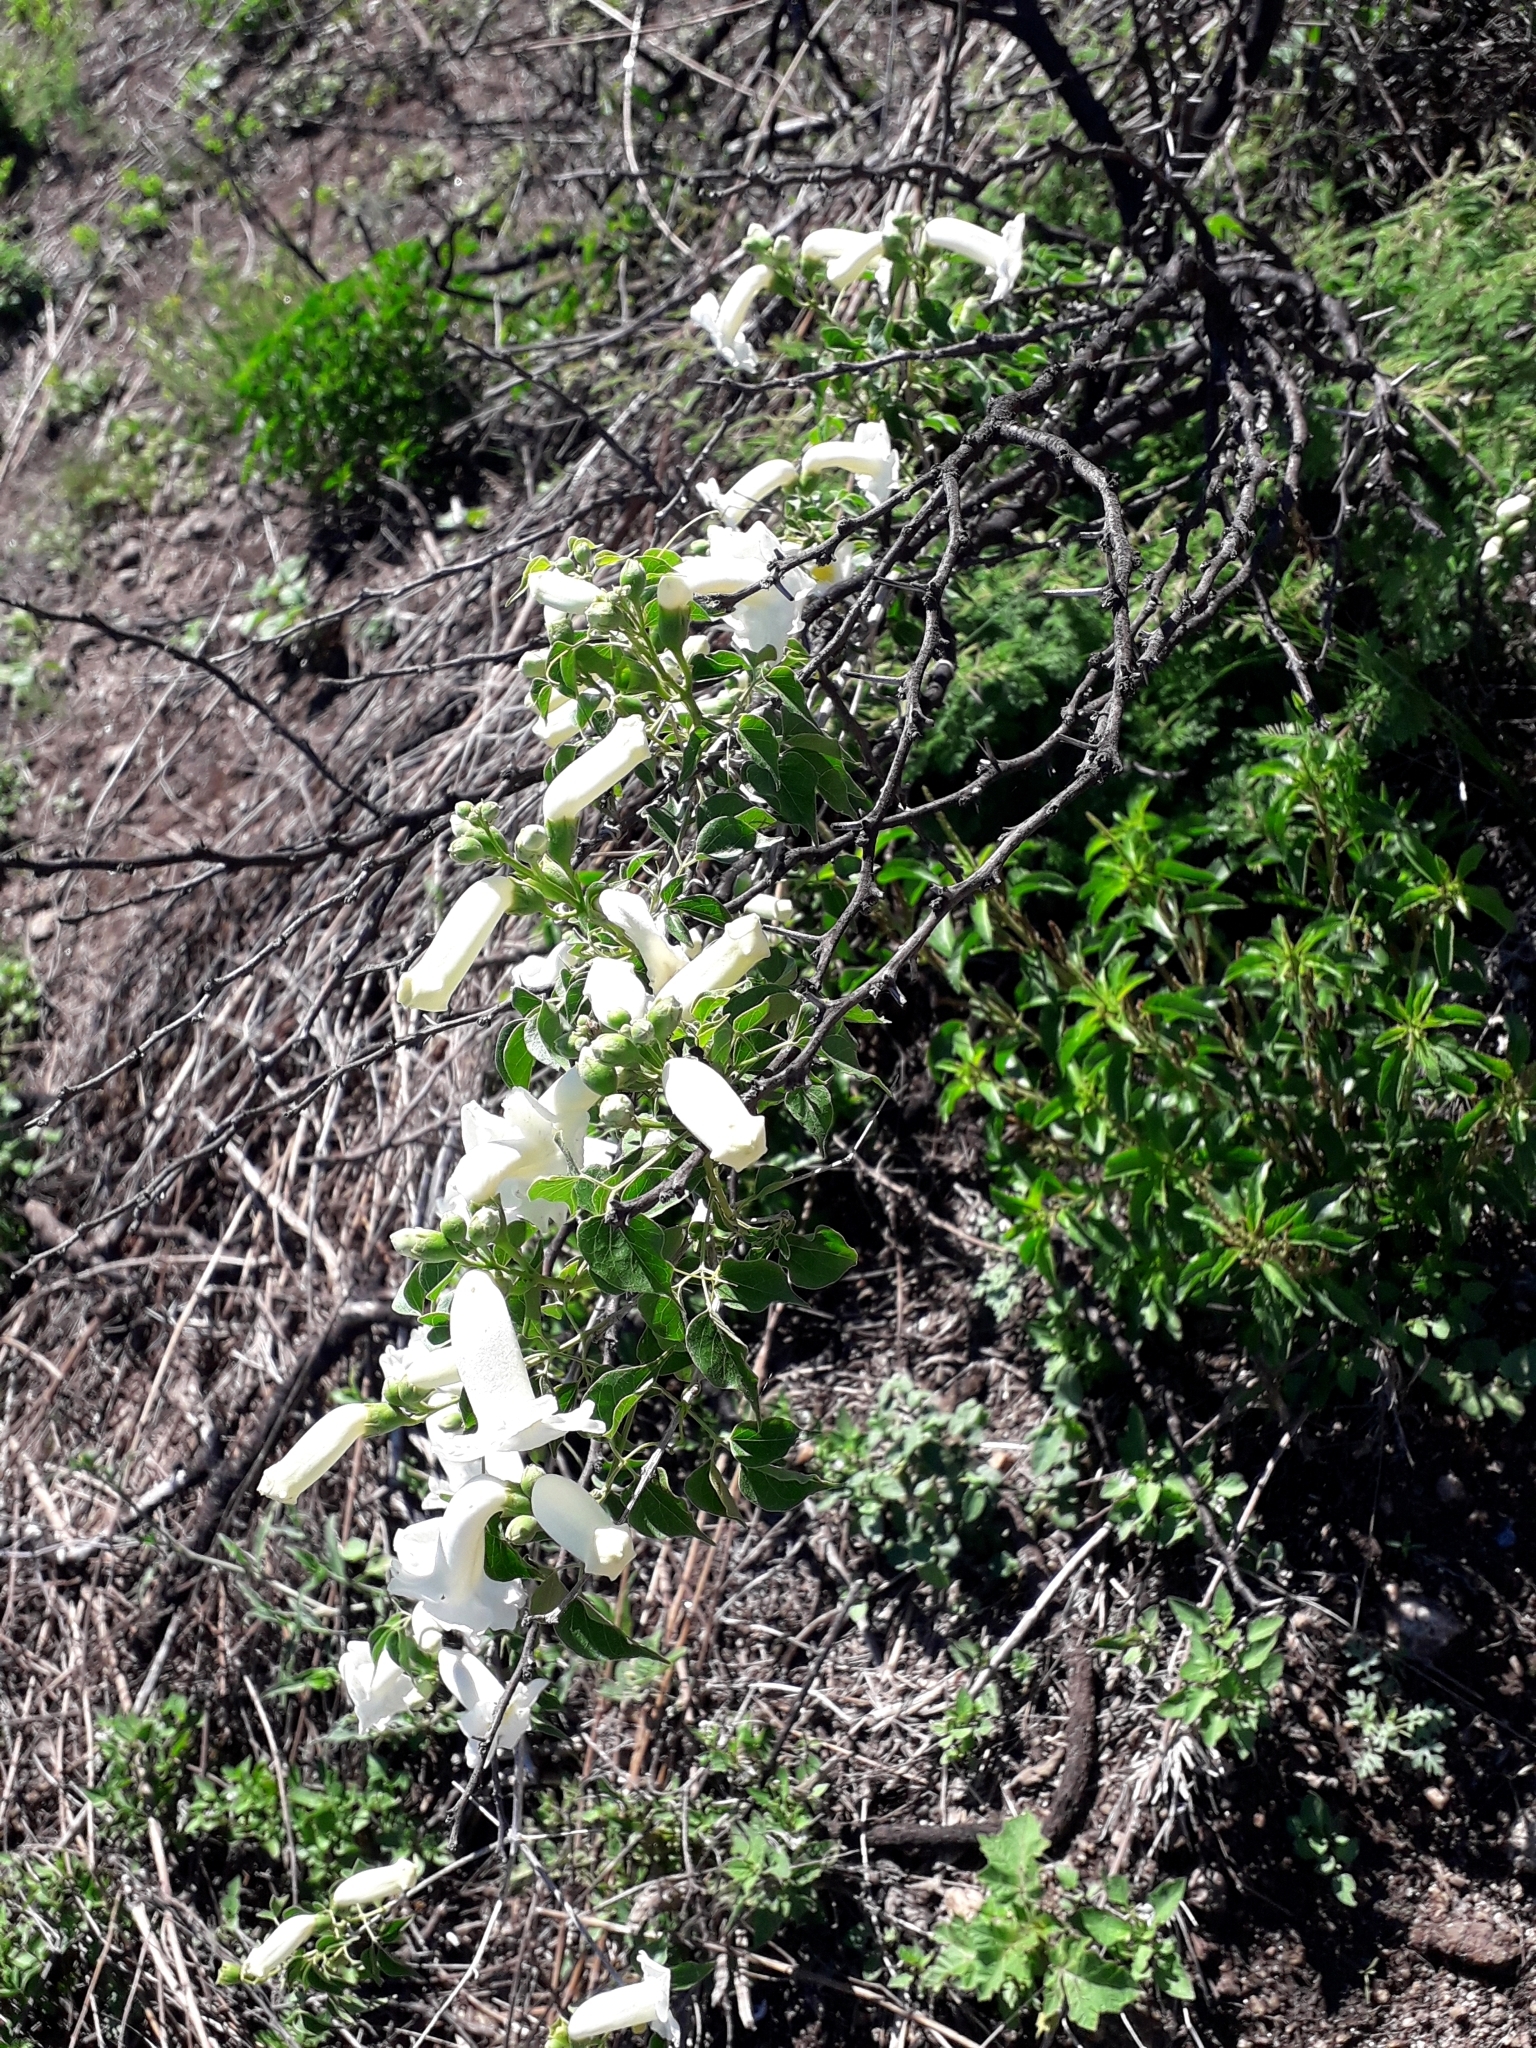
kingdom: Plantae
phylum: Tracheophyta
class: Magnoliopsida
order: Lamiales
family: Bignoniaceae
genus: Amphilophium
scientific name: Amphilophium carolinae
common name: Monkey's-comb
